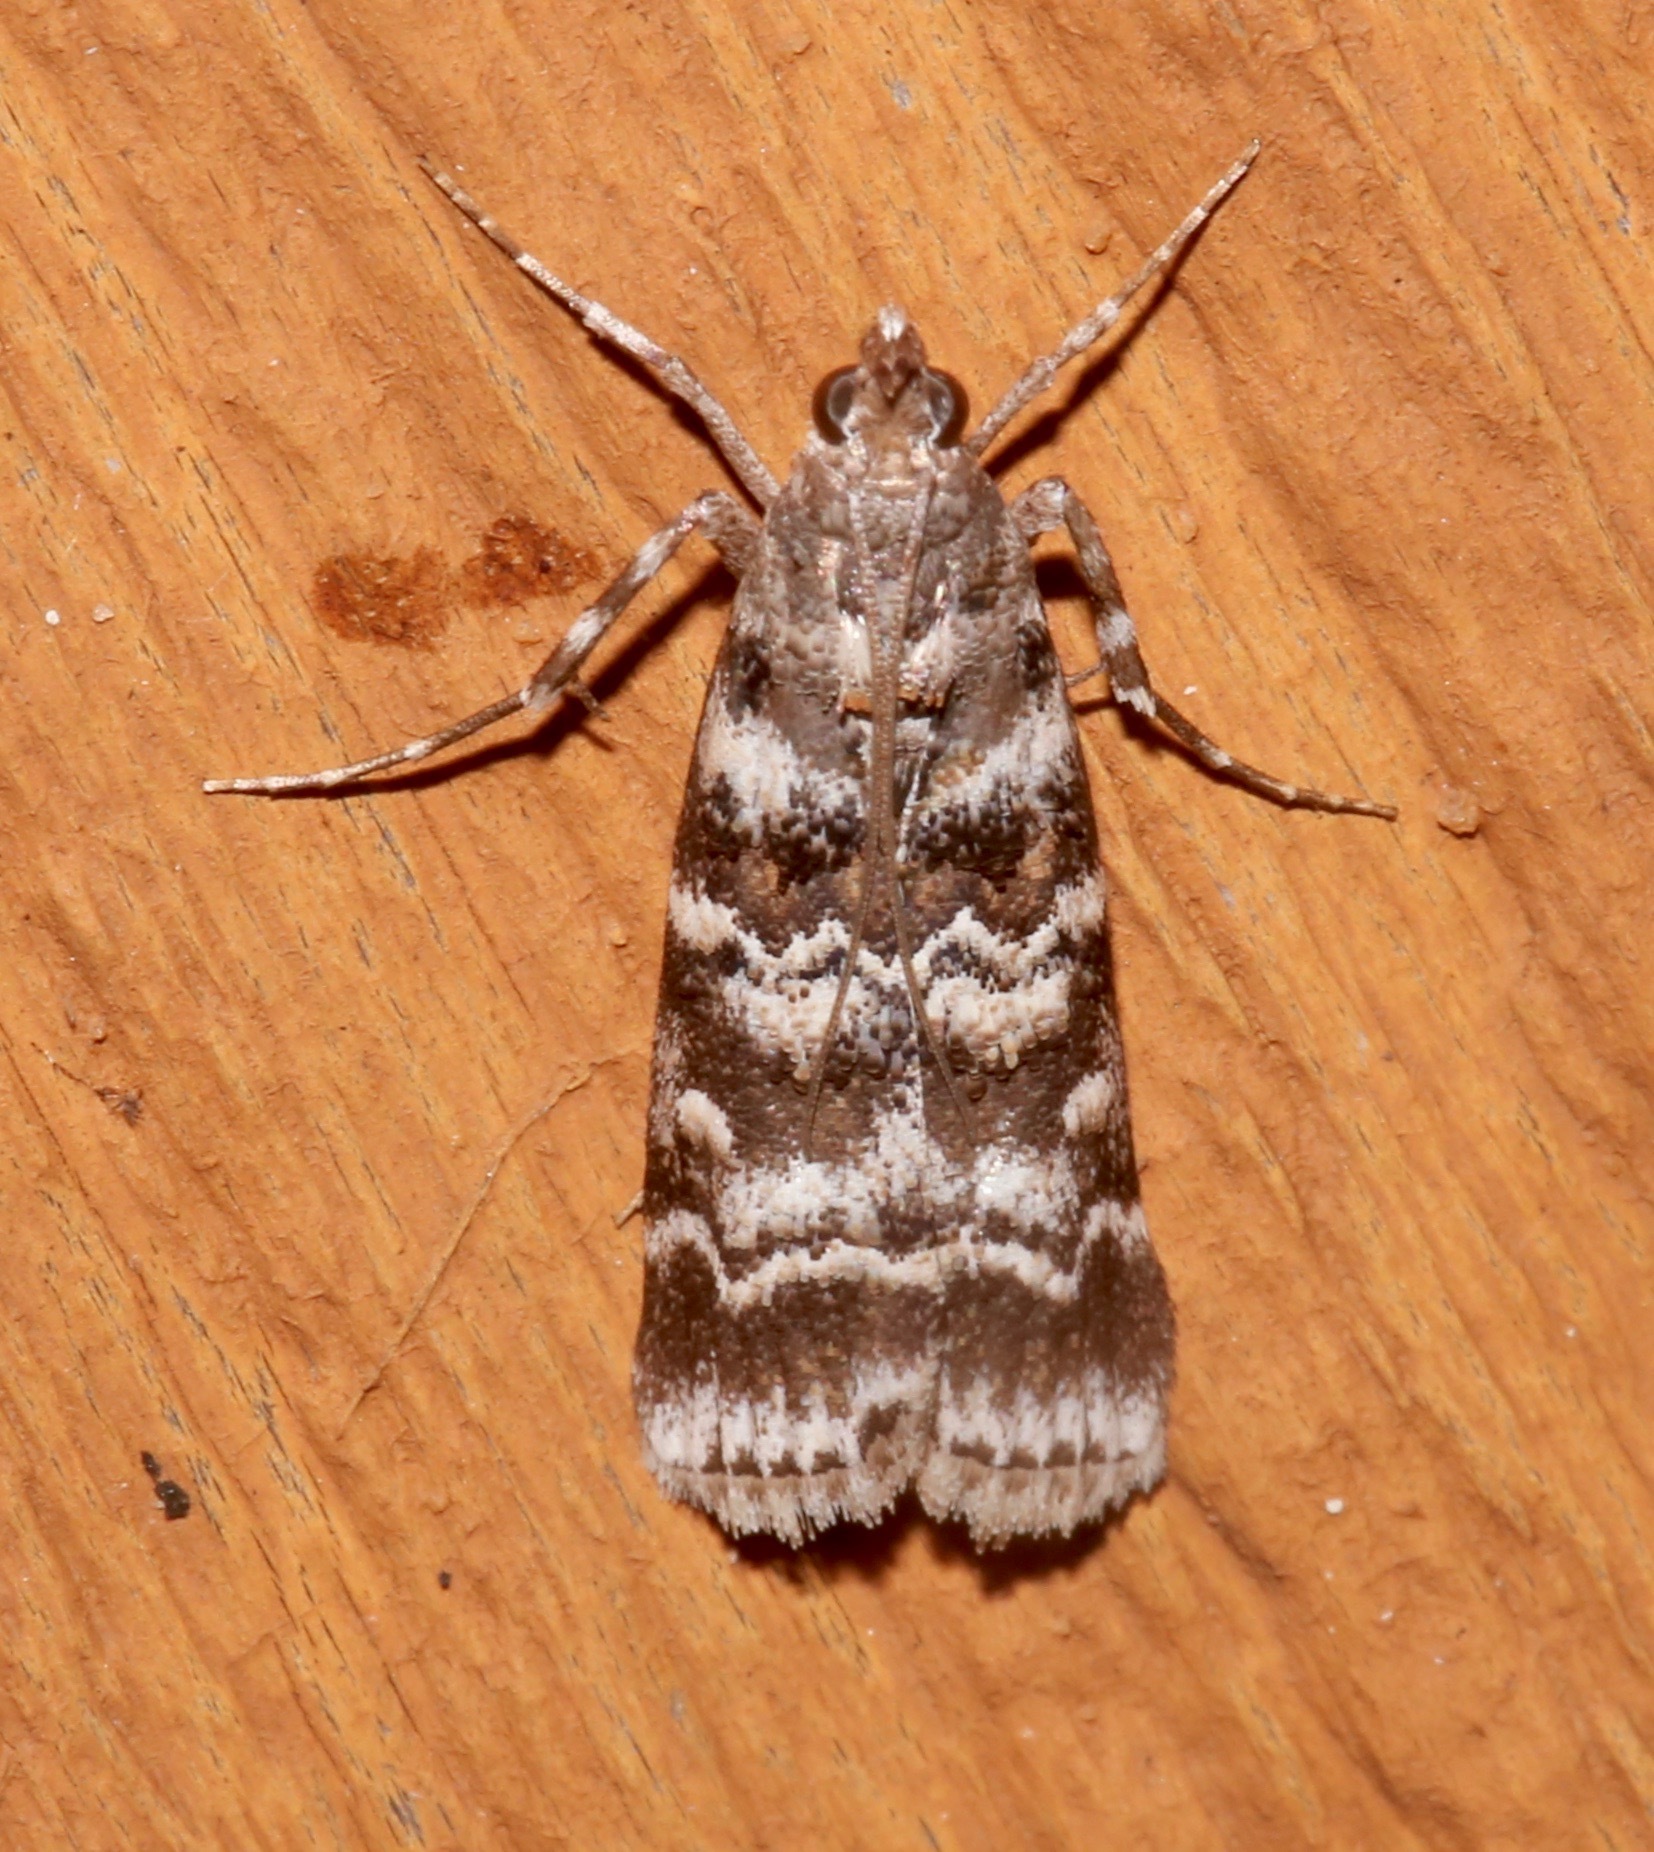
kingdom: Animalia
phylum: Arthropoda
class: Insecta
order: Lepidoptera
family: Pyralidae
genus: Dioryctria
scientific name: Dioryctria amatella
